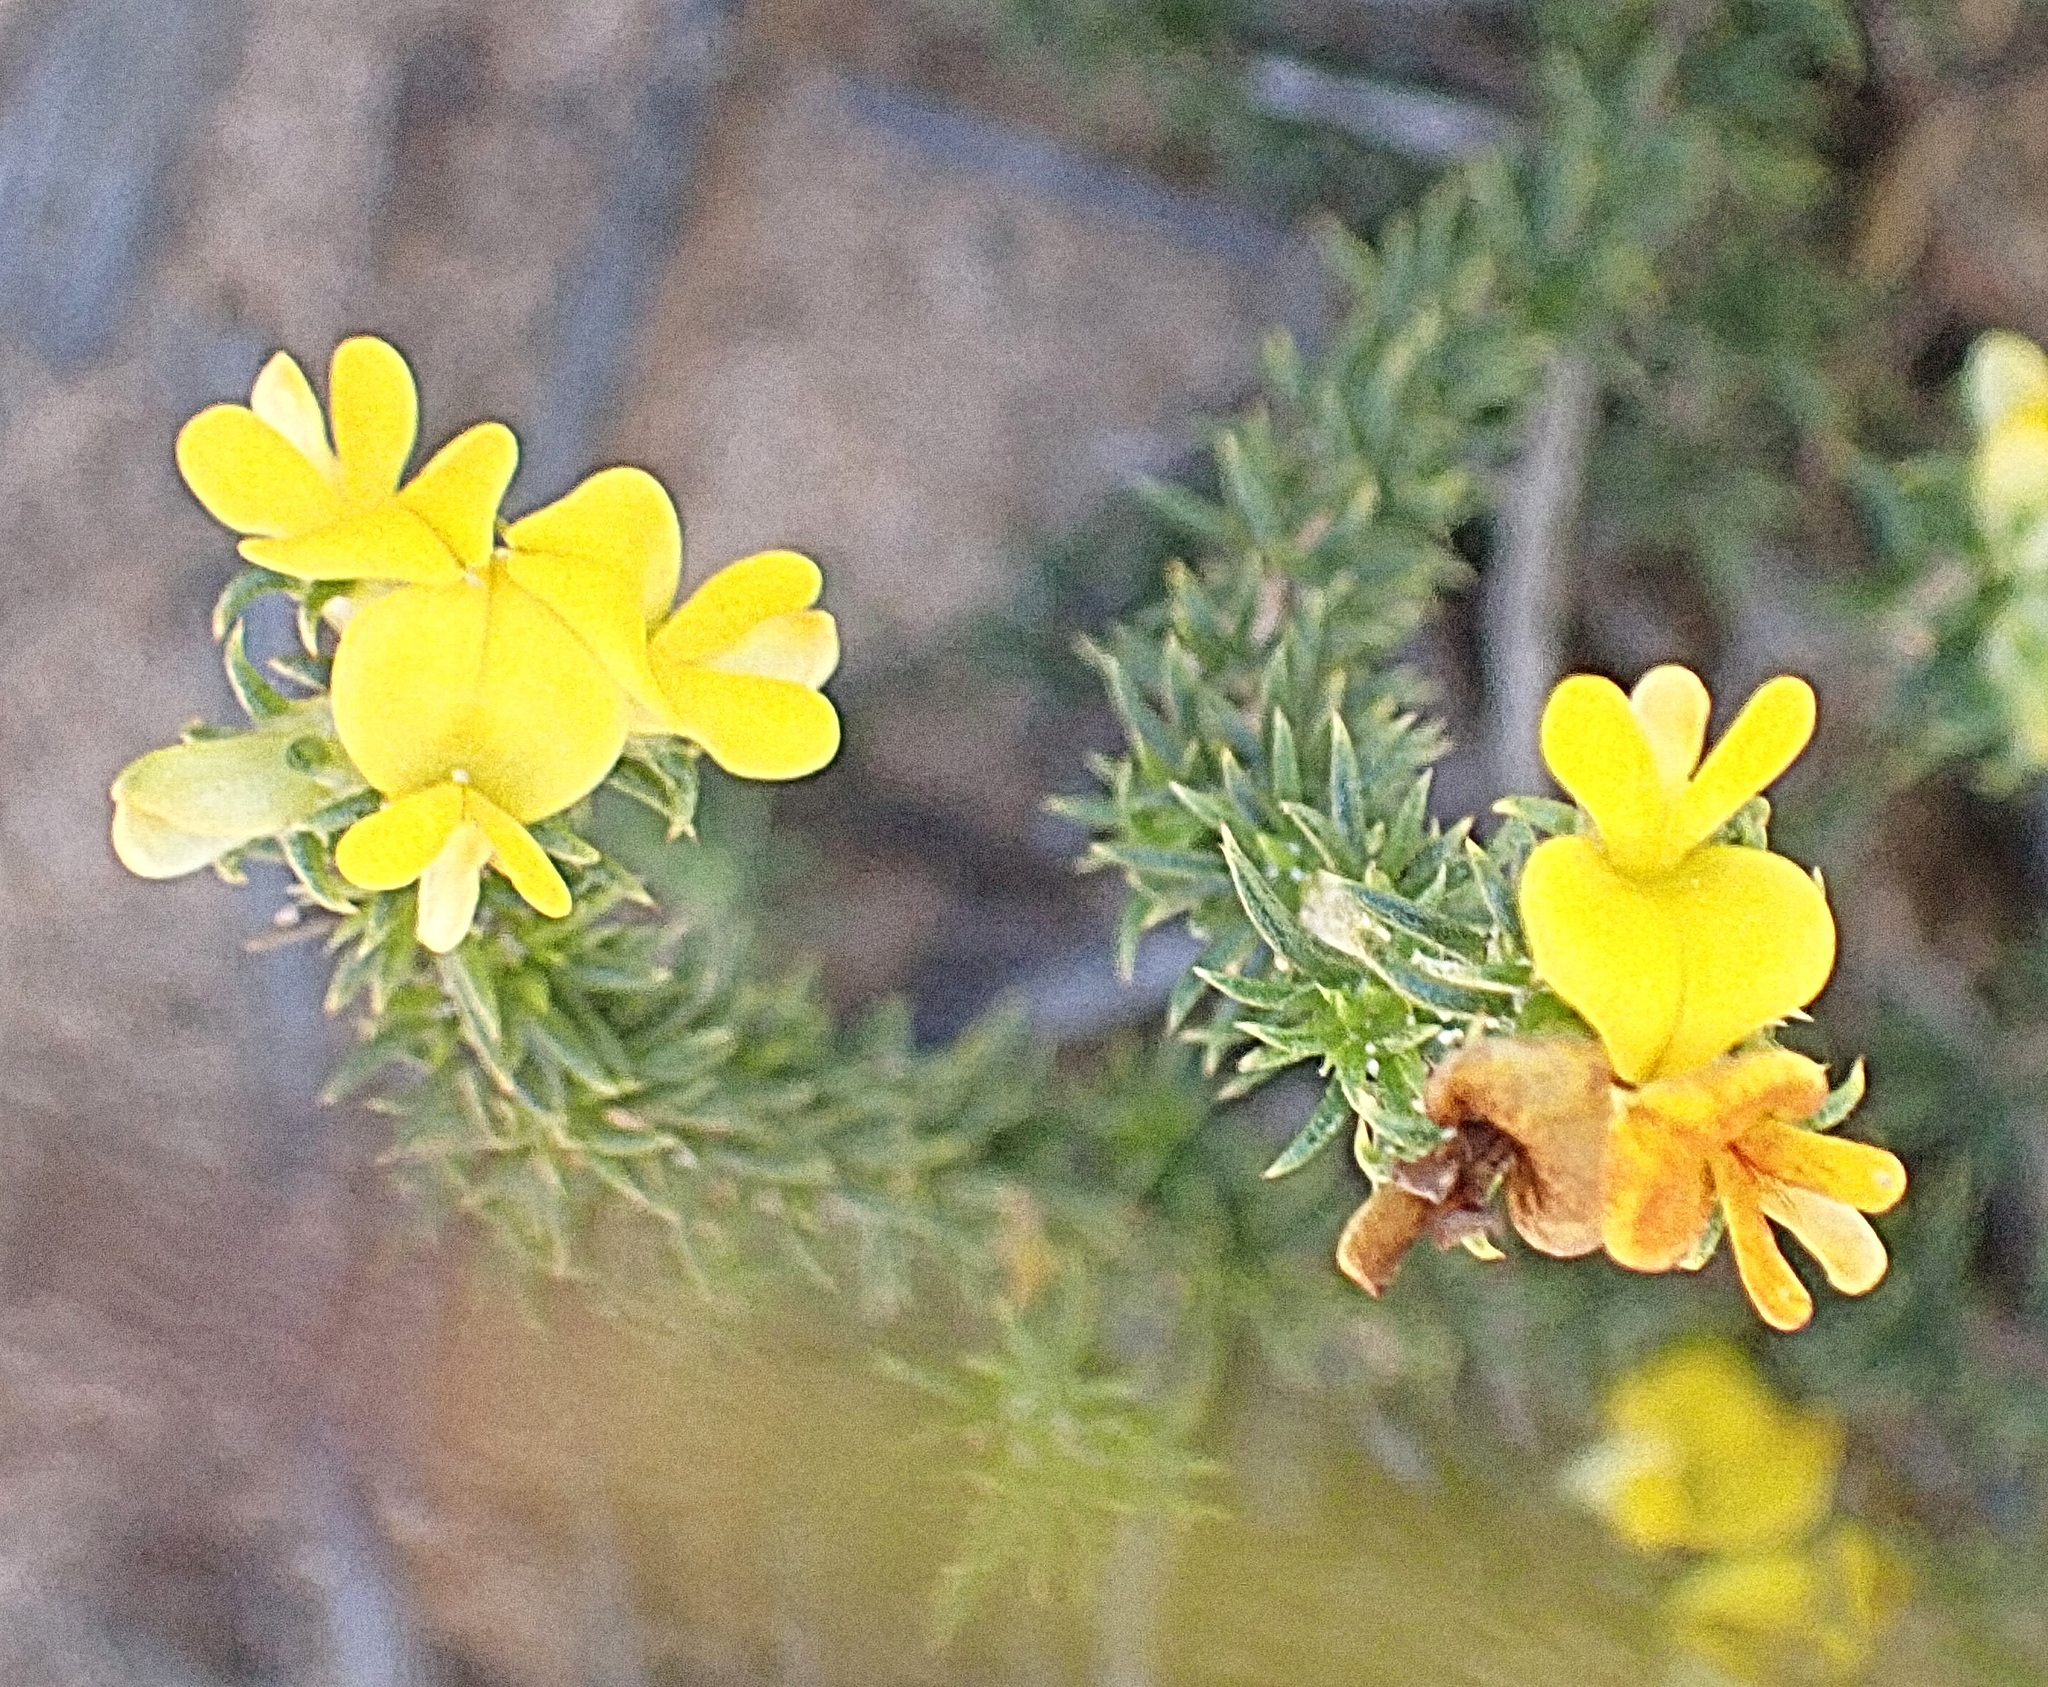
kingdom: Plantae
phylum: Tracheophyta
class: Magnoliopsida
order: Fabales
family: Fabaceae
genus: Aspalathus
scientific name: Aspalathus crassisepala
